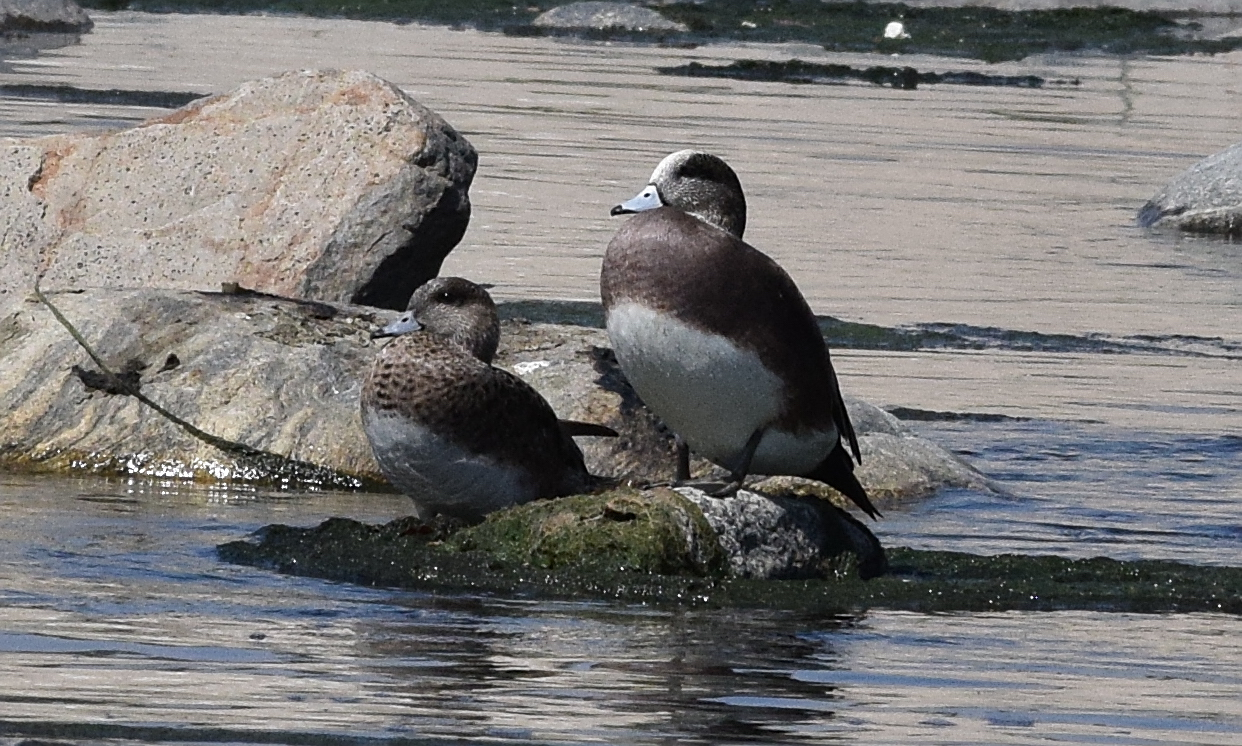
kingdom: Animalia
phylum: Chordata
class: Aves
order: Anseriformes
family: Anatidae
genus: Mareca
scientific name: Mareca americana
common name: American wigeon
